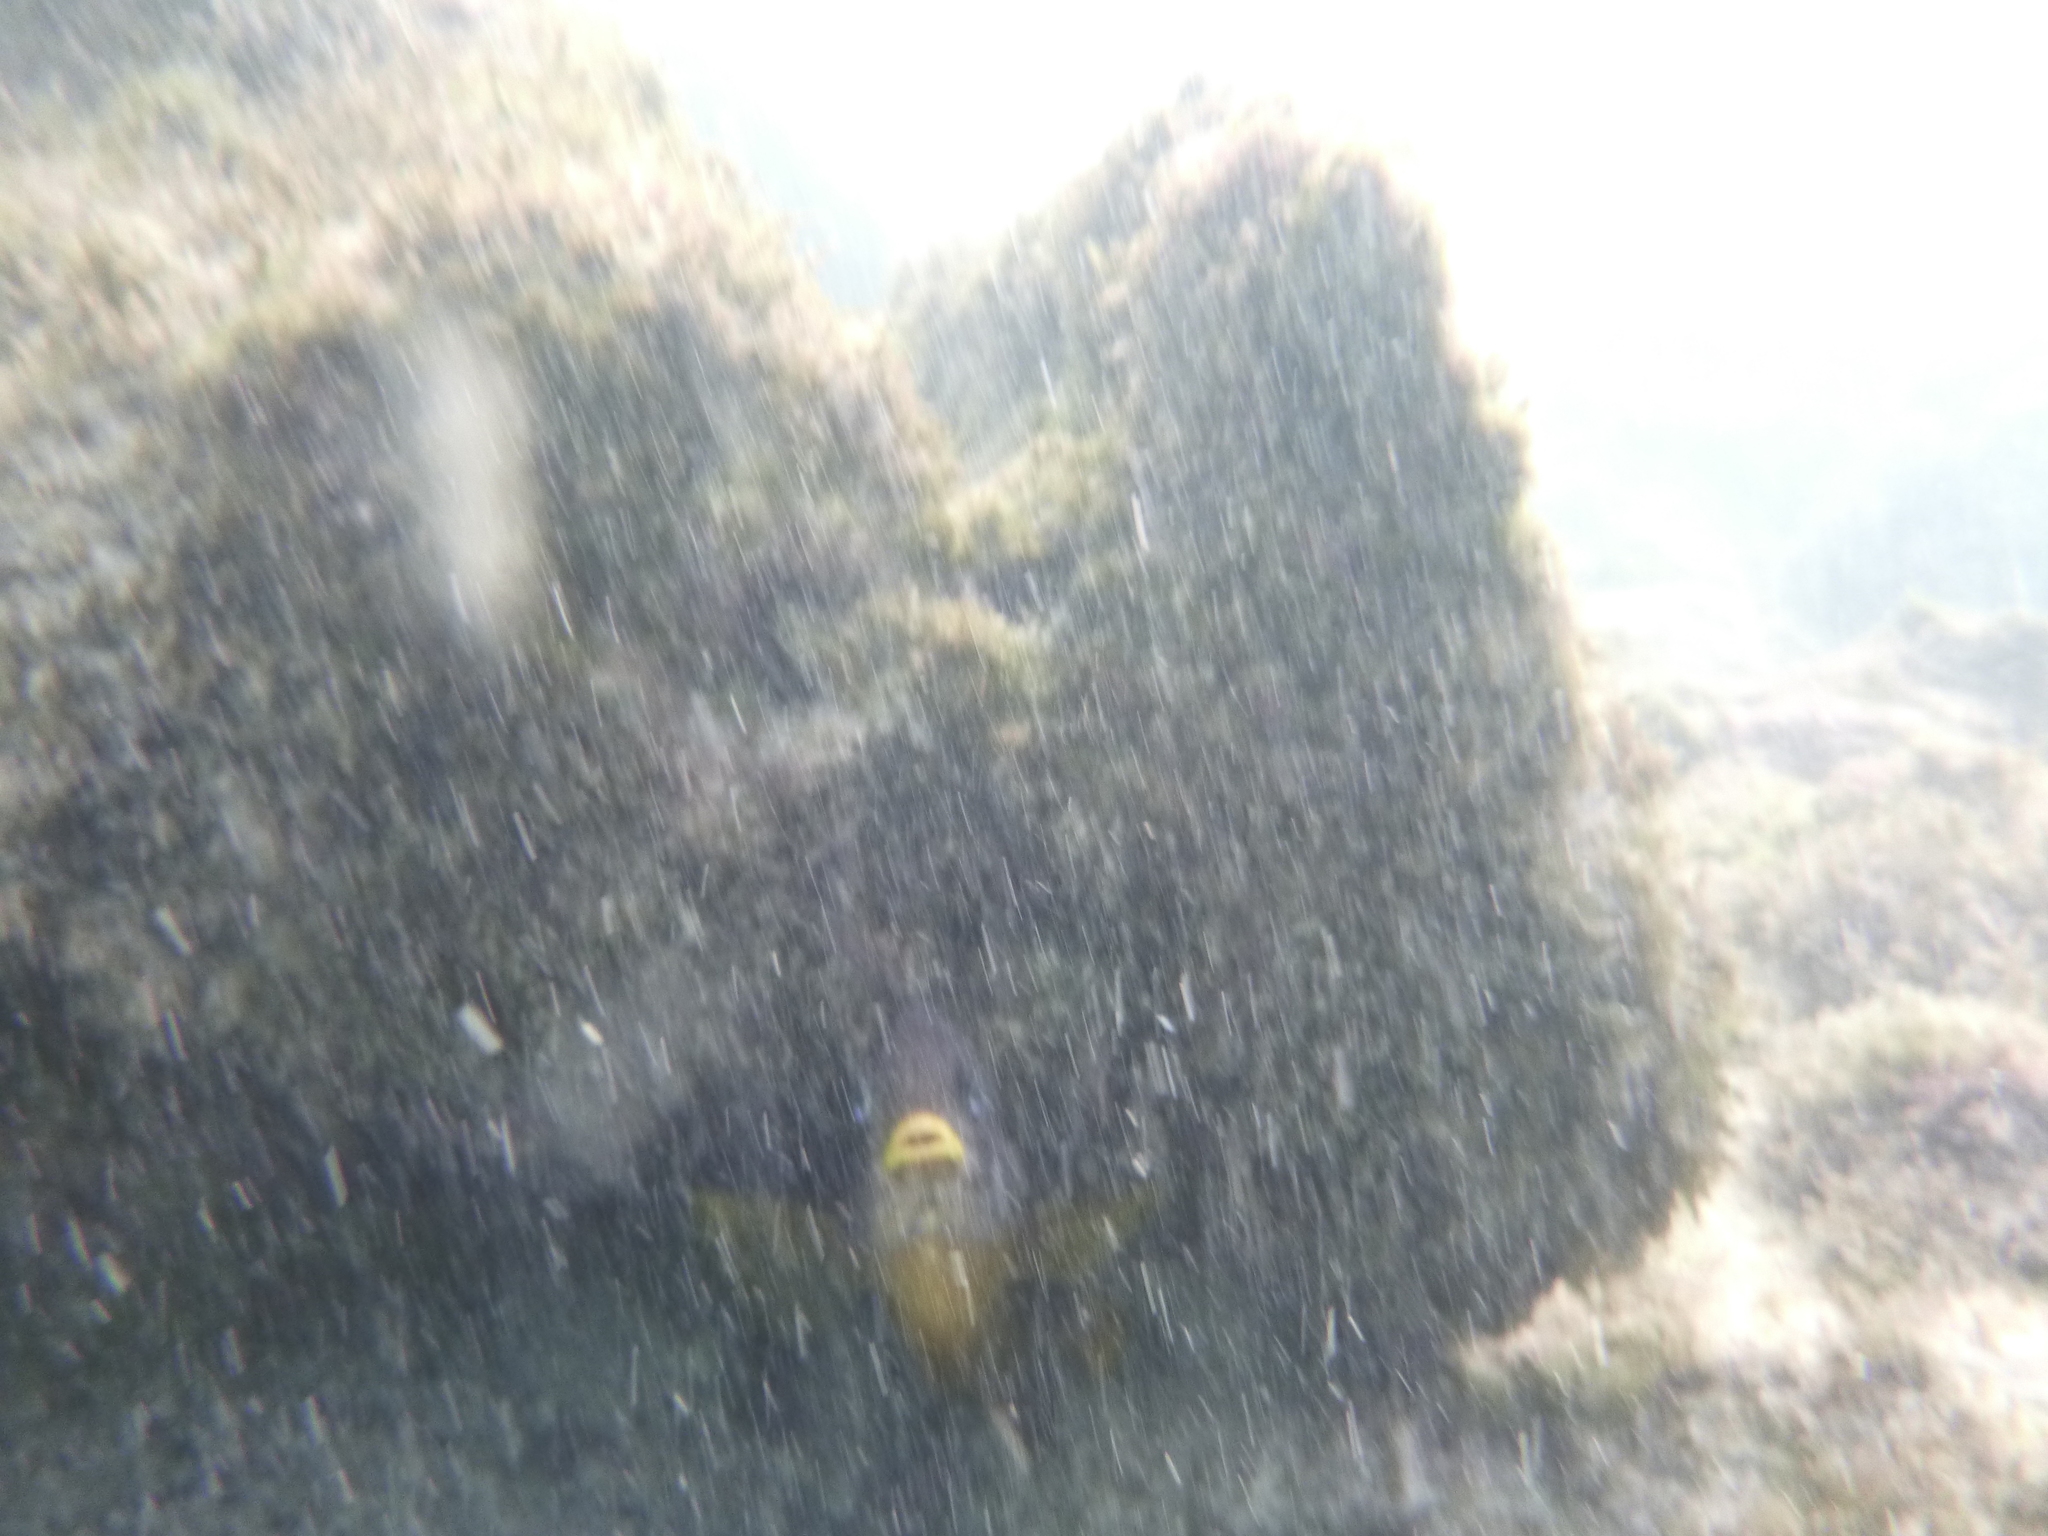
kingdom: Animalia
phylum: Chordata
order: Perciformes
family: Pomacentridae
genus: Stegastes
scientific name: Stegastes arcifrons
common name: Galapagos gregory
